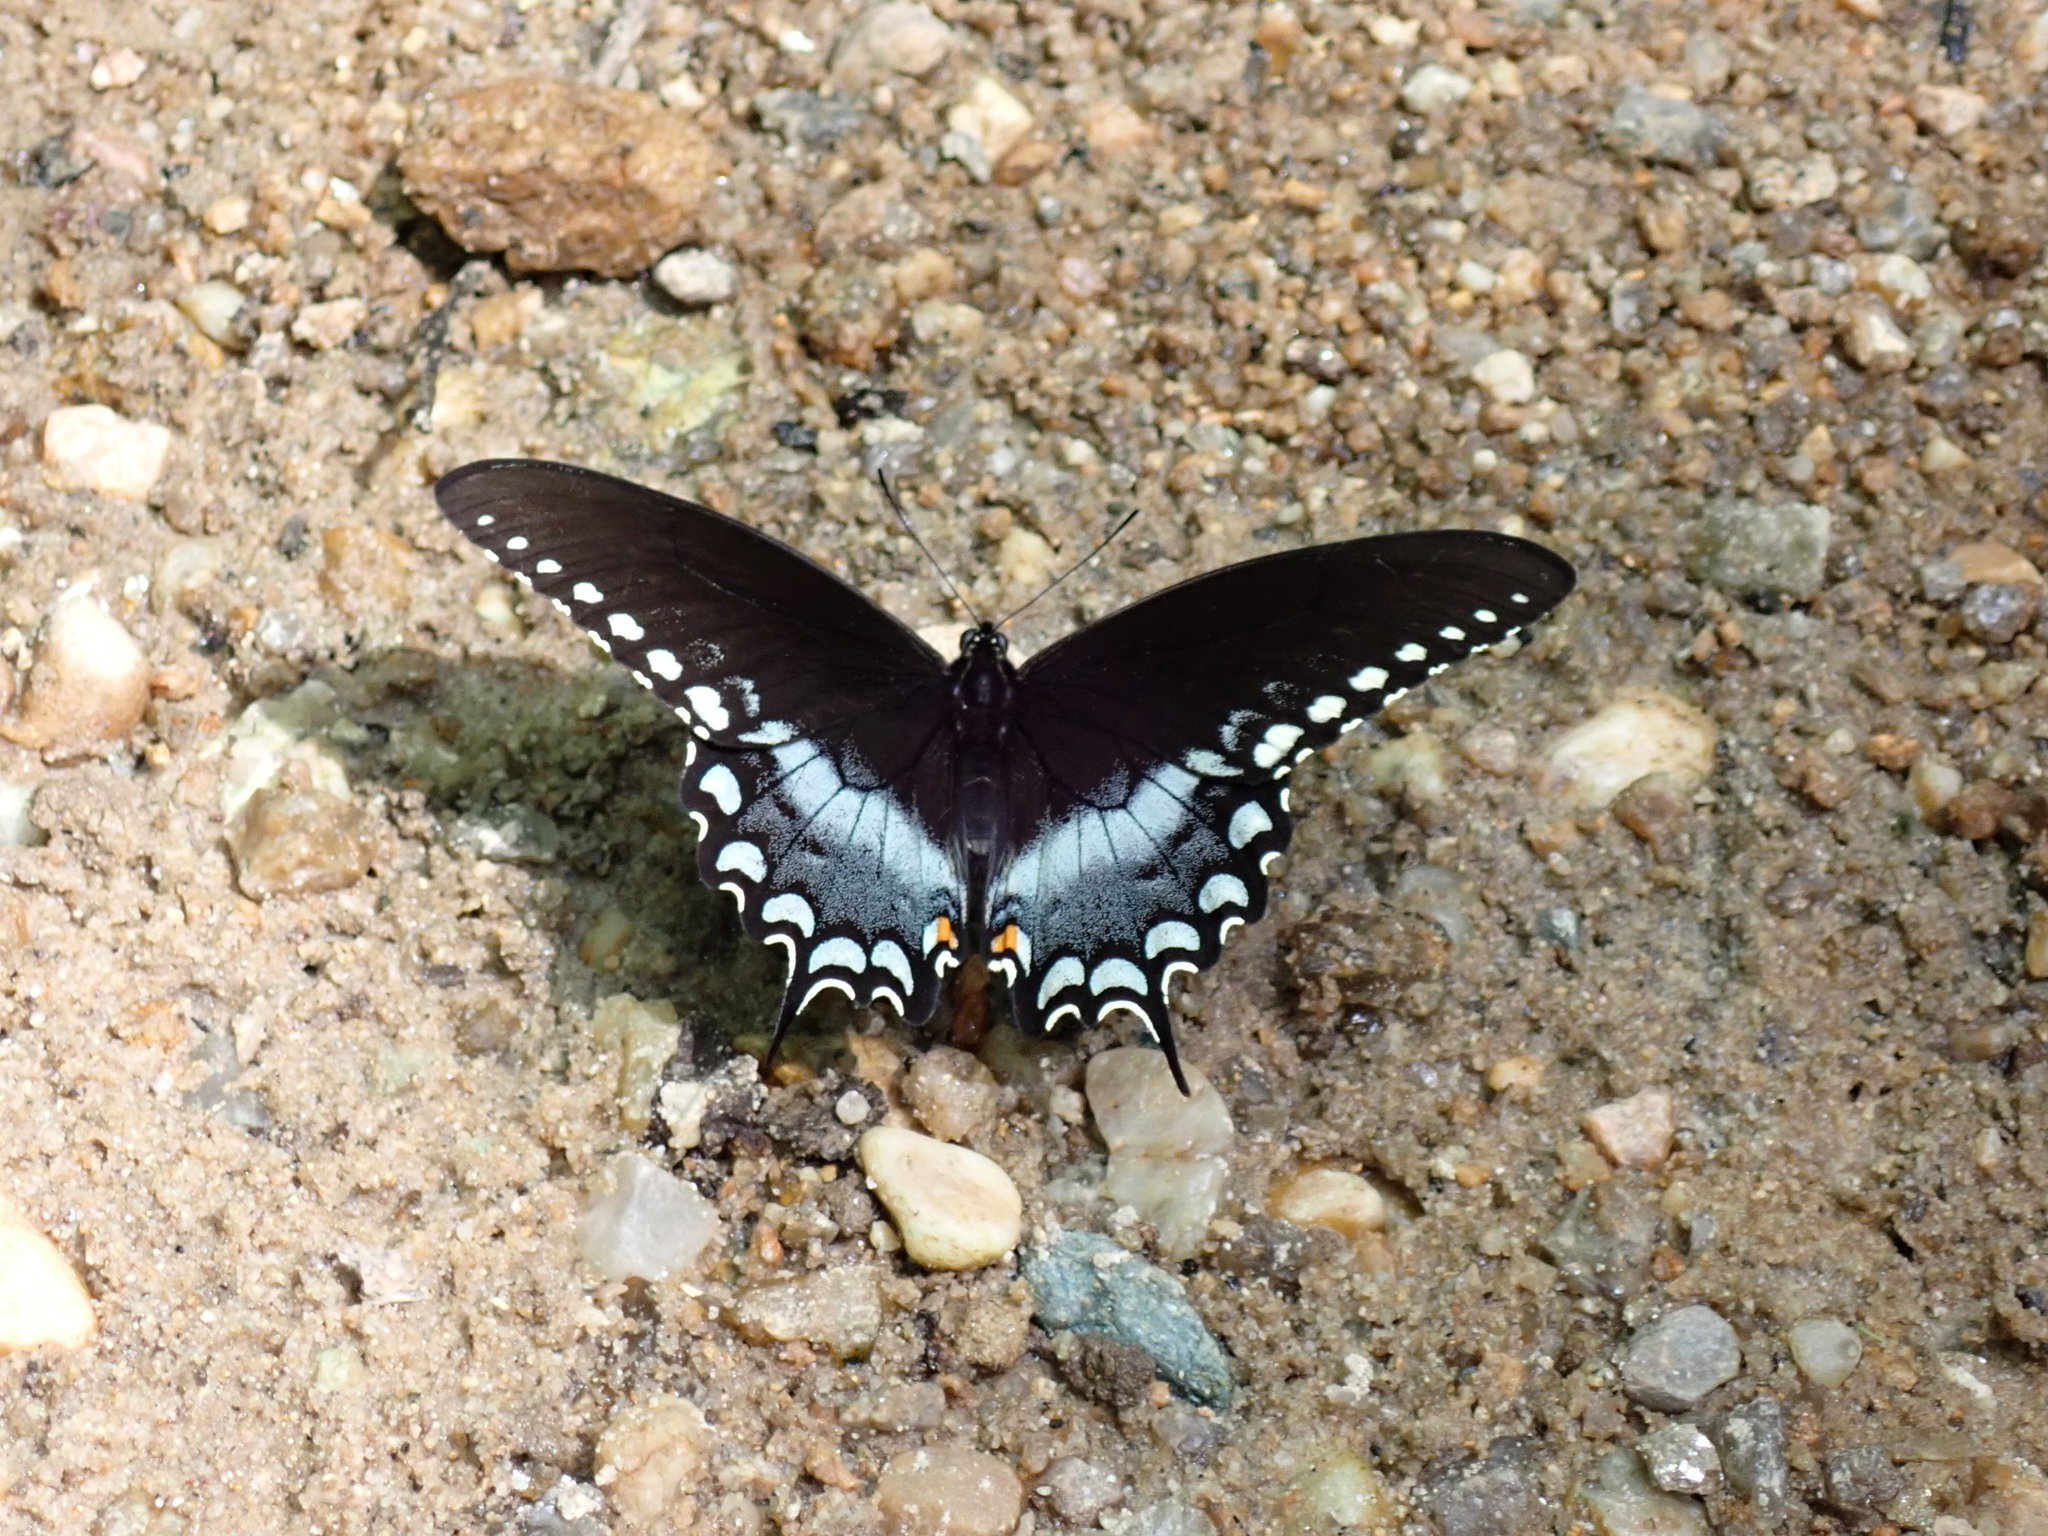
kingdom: Animalia
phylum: Arthropoda
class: Insecta
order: Lepidoptera
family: Papilionidae
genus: Papilio
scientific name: Papilio troilus
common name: Spicebush swallowtail
